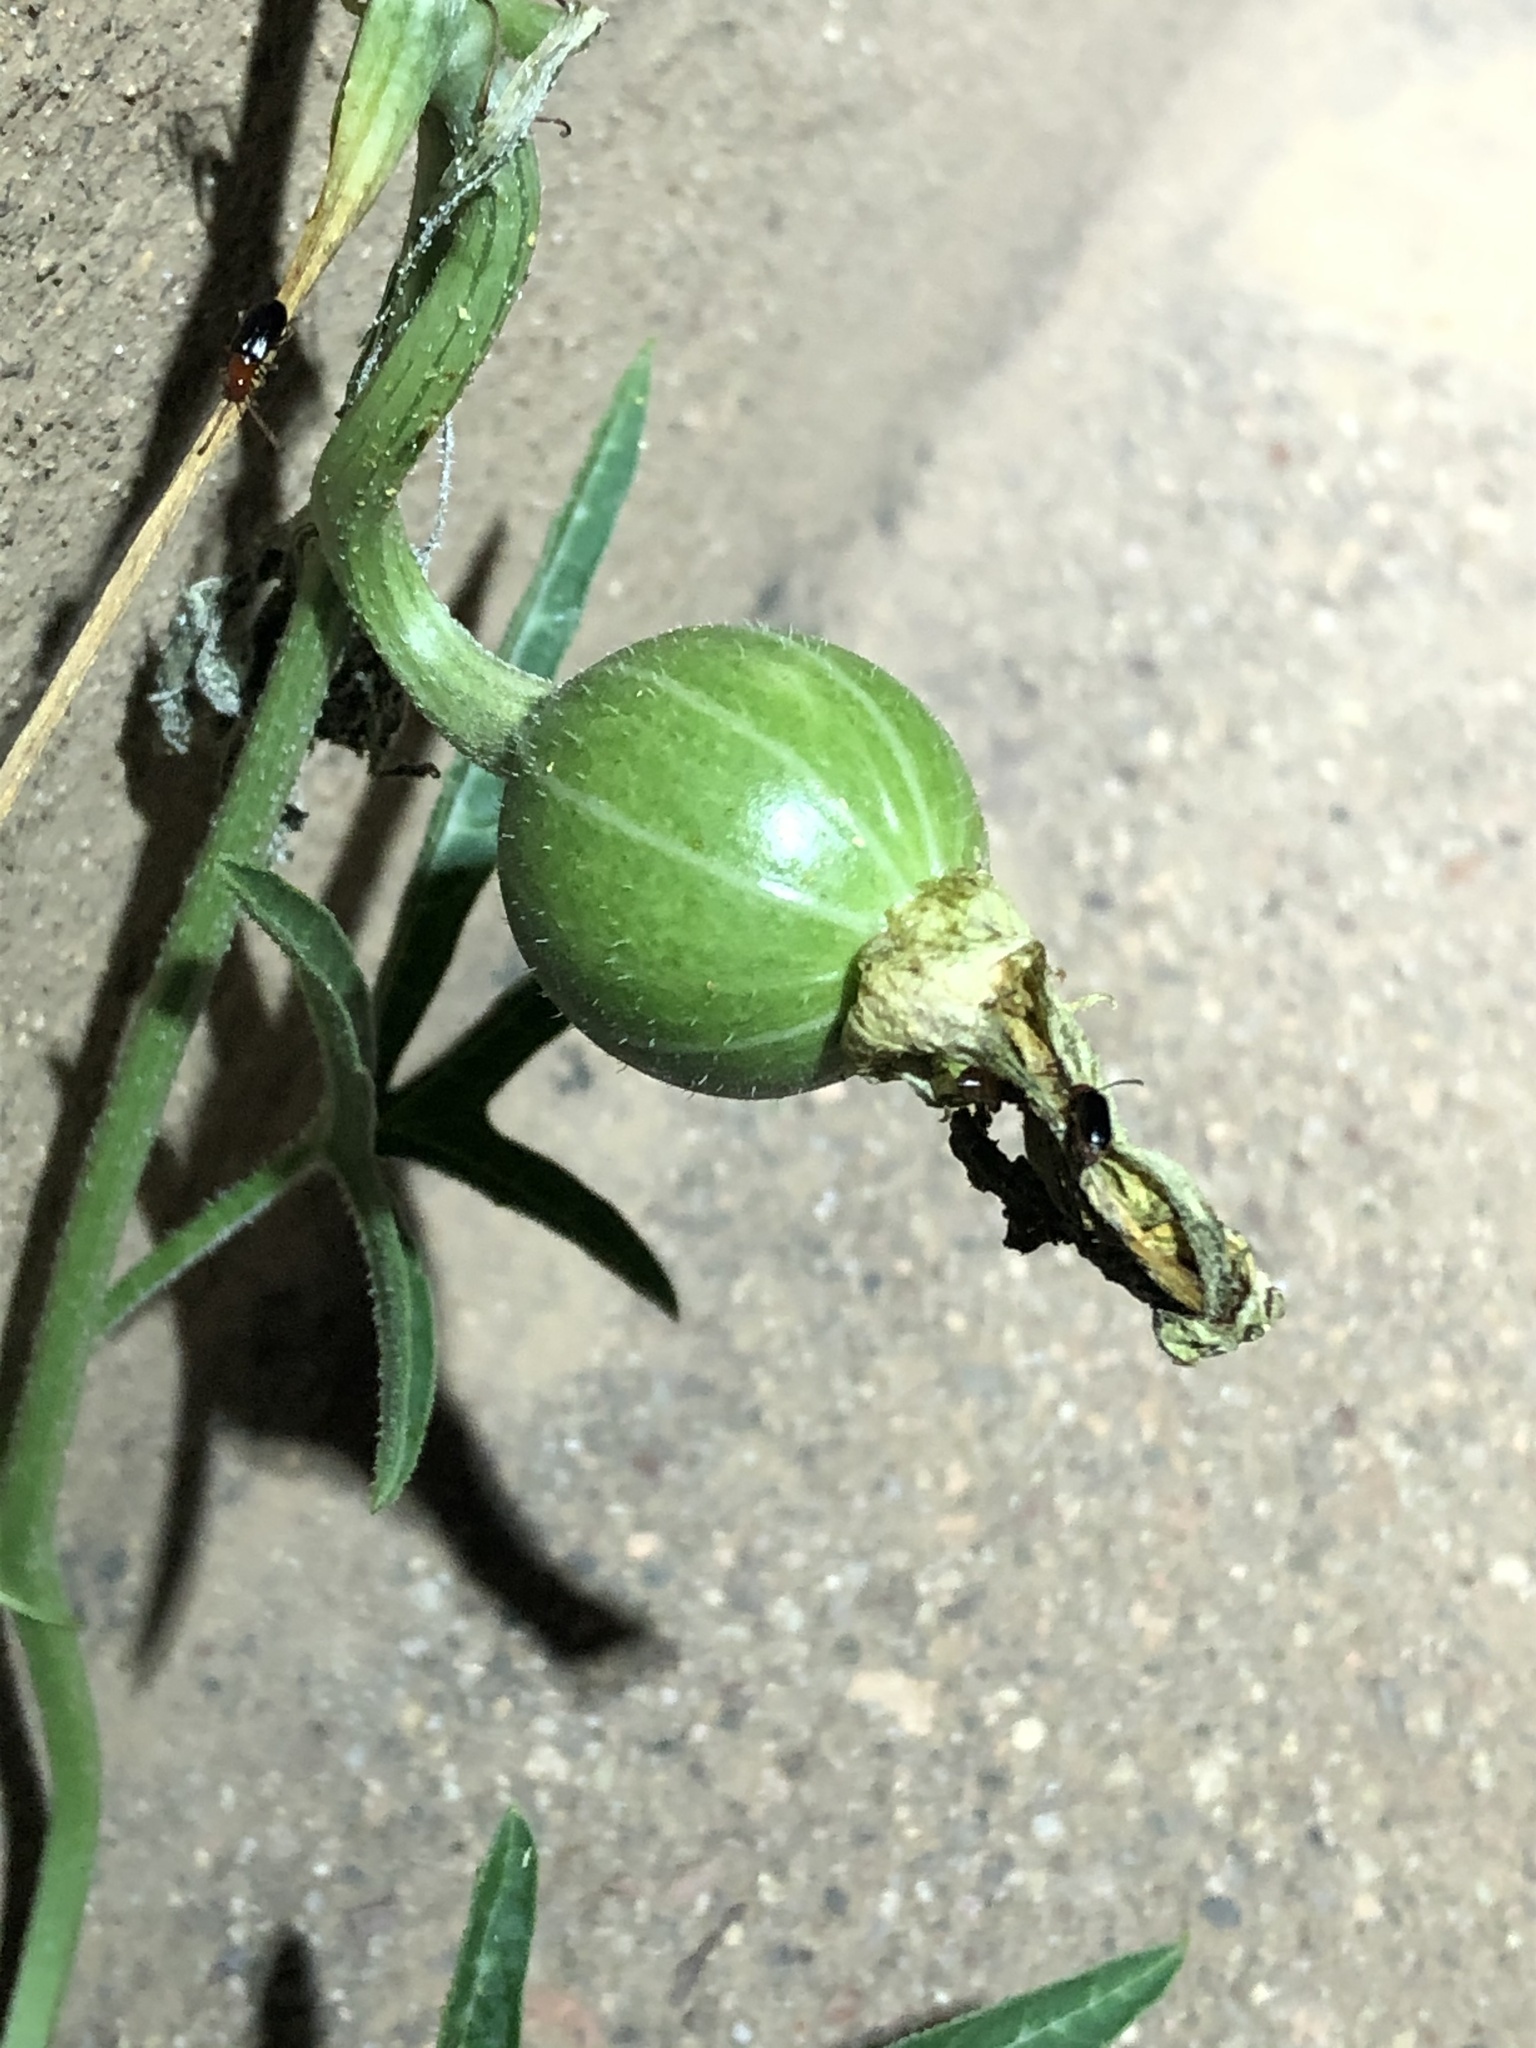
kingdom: Plantae
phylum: Tracheophyta
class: Magnoliopsida
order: Cucurbitales
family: Cucurbitaceae
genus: Cucurbita
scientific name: Cucurbita digitata
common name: Finger-leaf gourd
